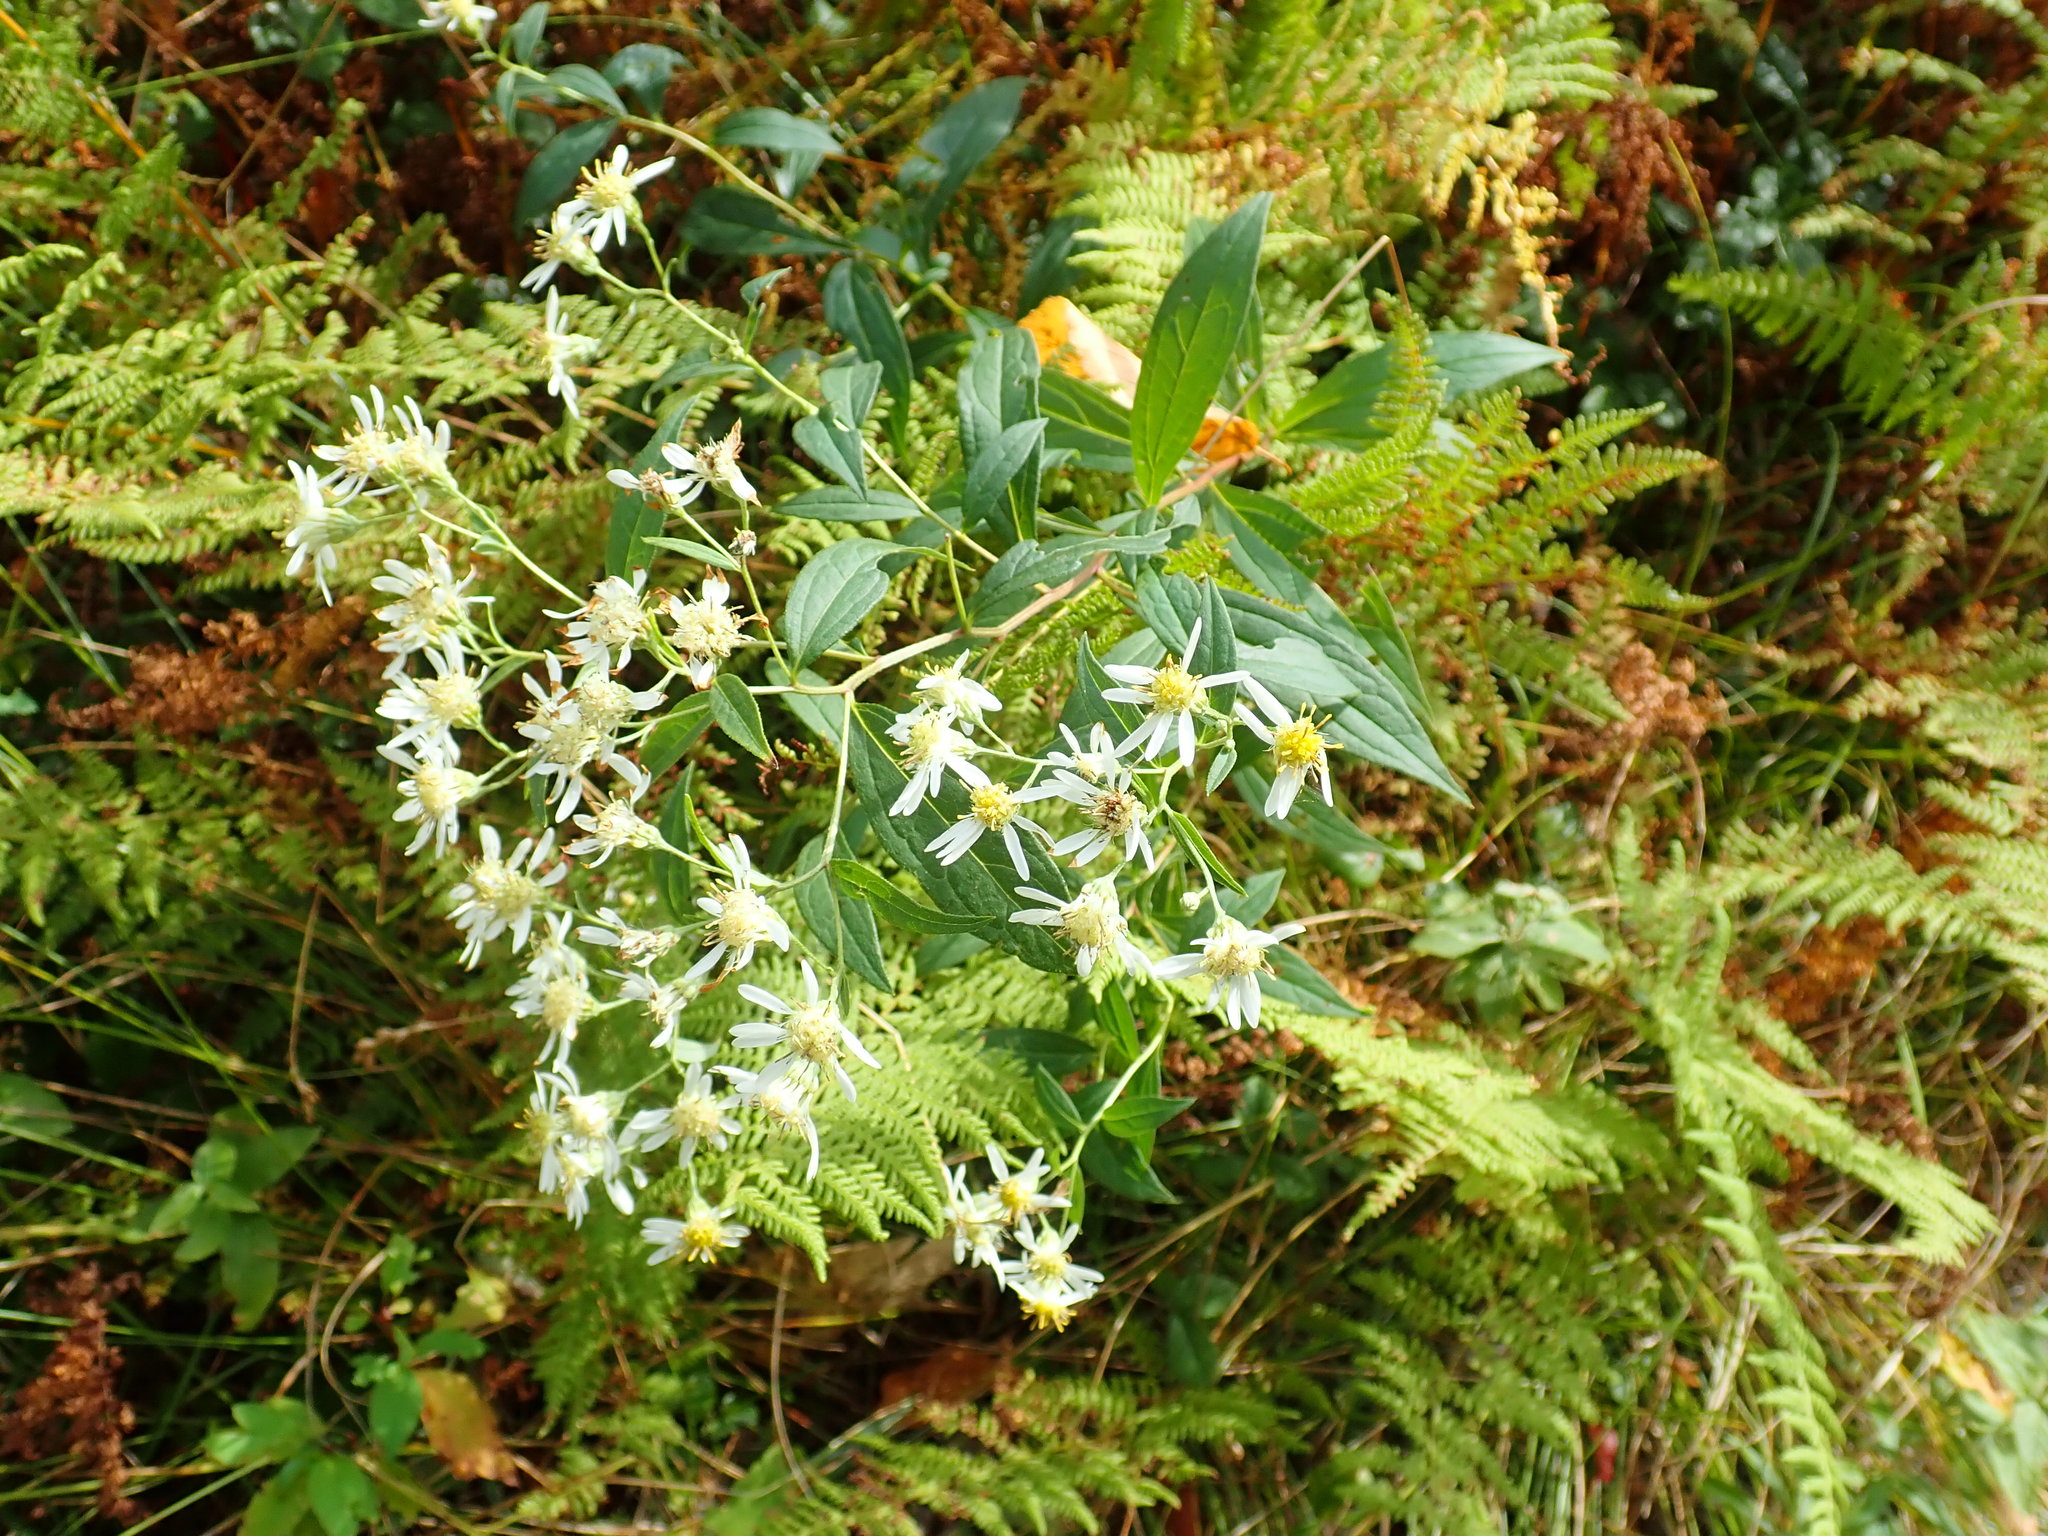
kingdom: Plantae
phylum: Tracheophyta
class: Magnoliopsida
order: Asterales
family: Asteraceae
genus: Doellingeria
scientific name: Doellingeria umbellata
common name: Flat-top white aster
